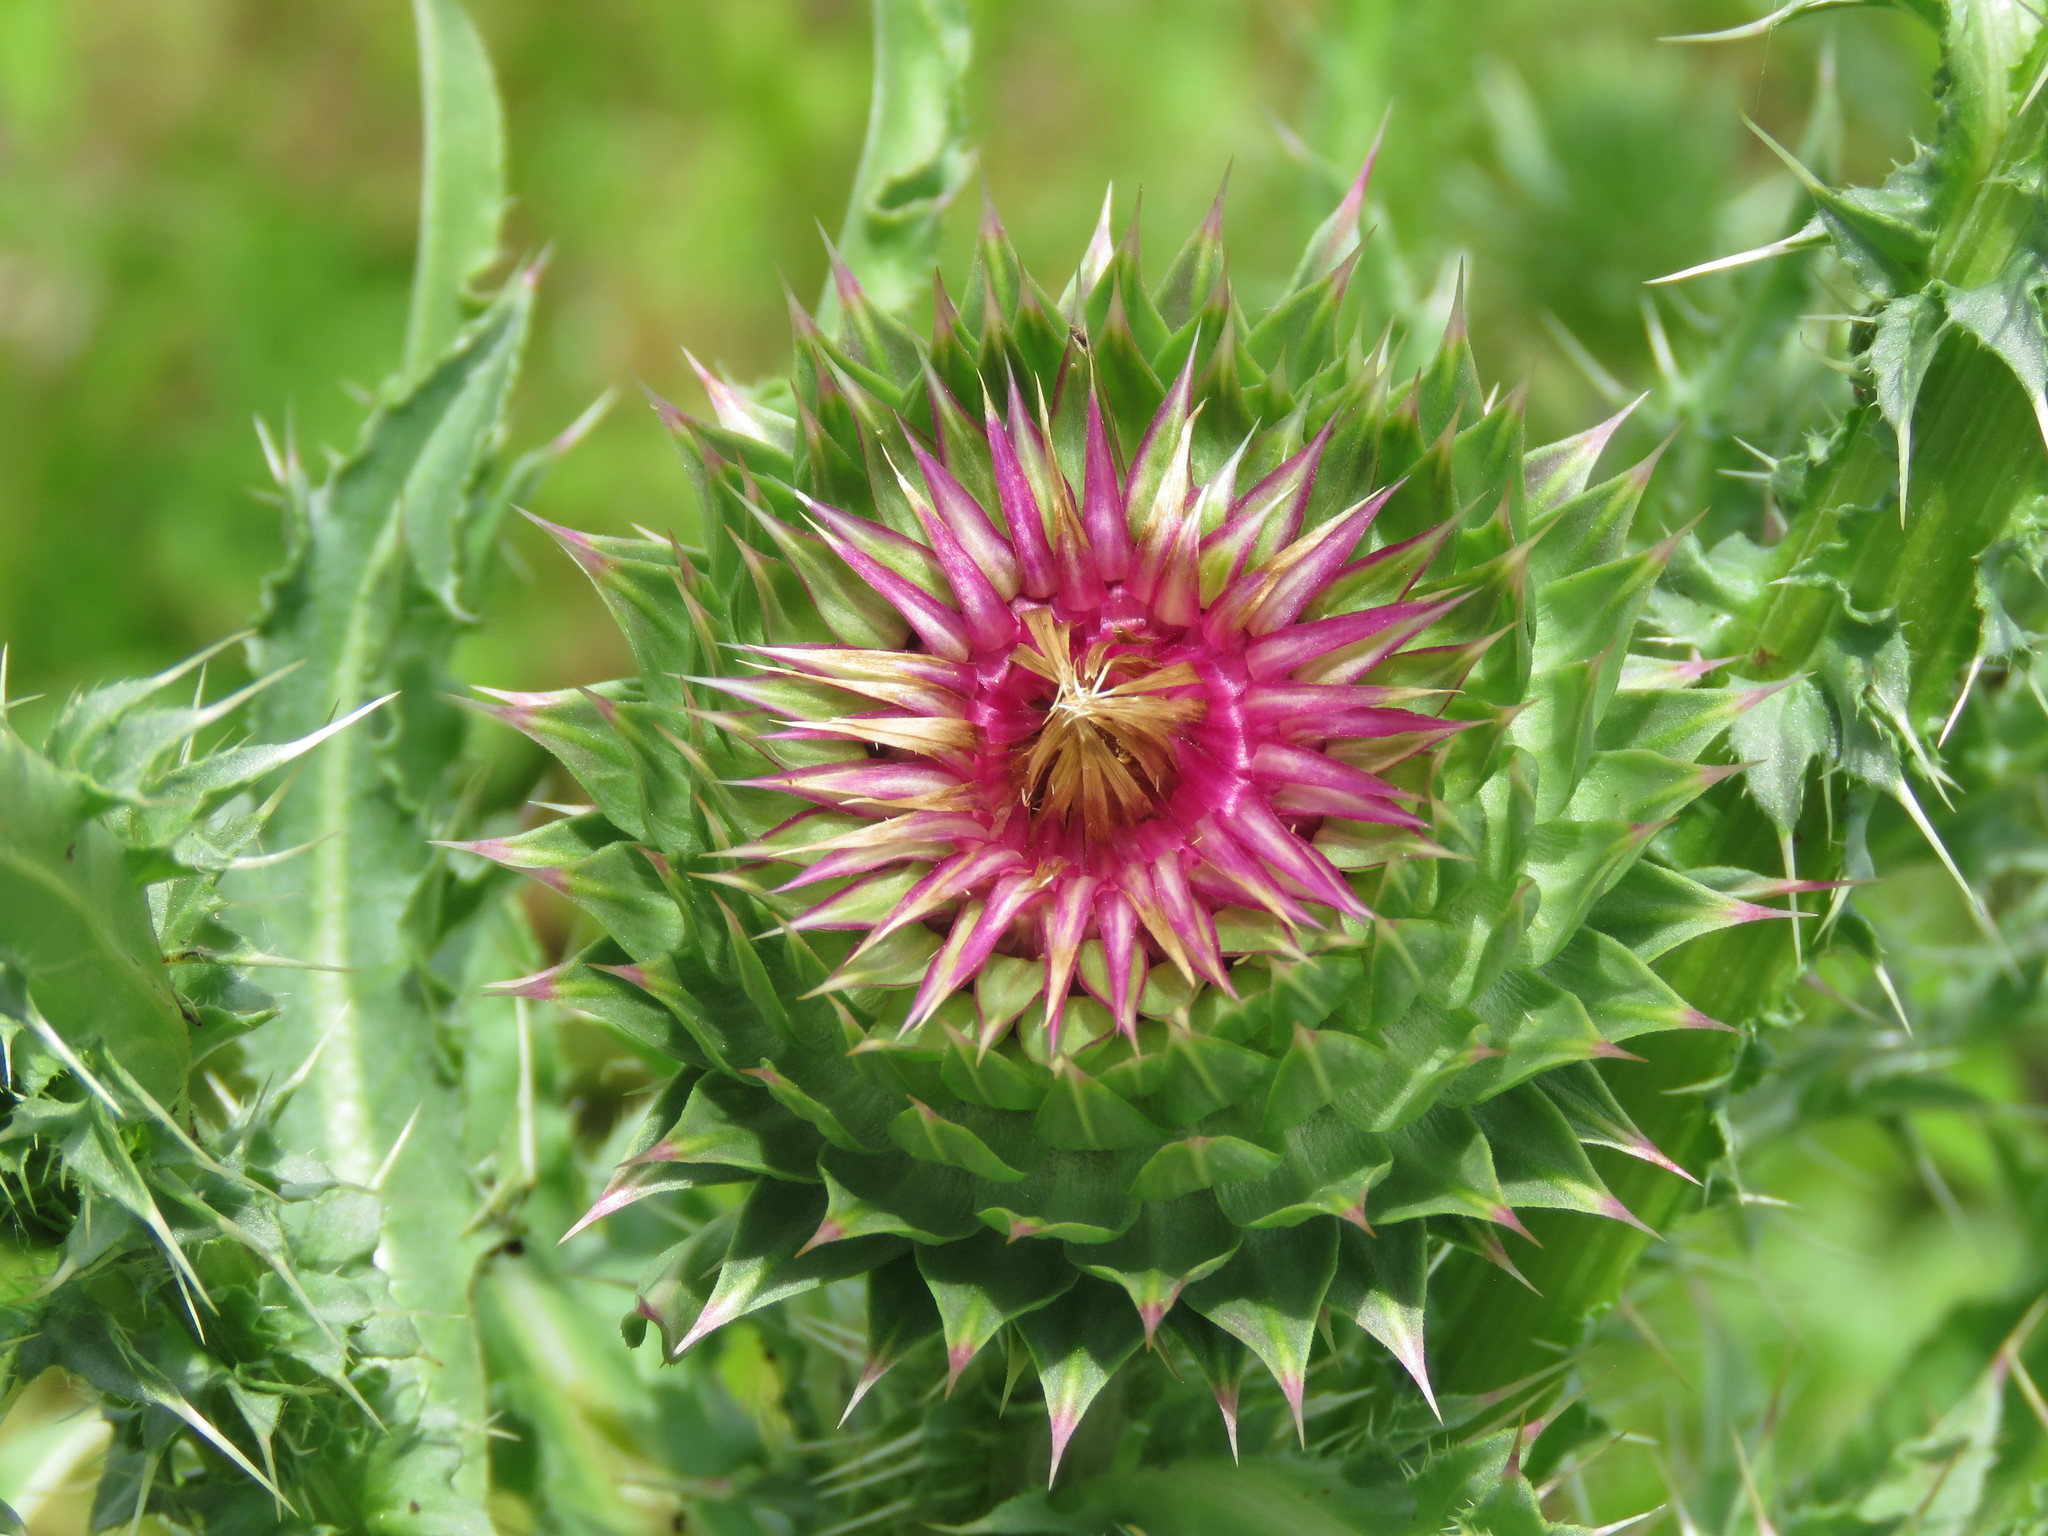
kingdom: Plantae
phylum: Tracheophyta
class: Magnoliopsida
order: Asterales
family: Asteraceae
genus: Carduus
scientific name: Carduus nutans
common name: Musk thistle
